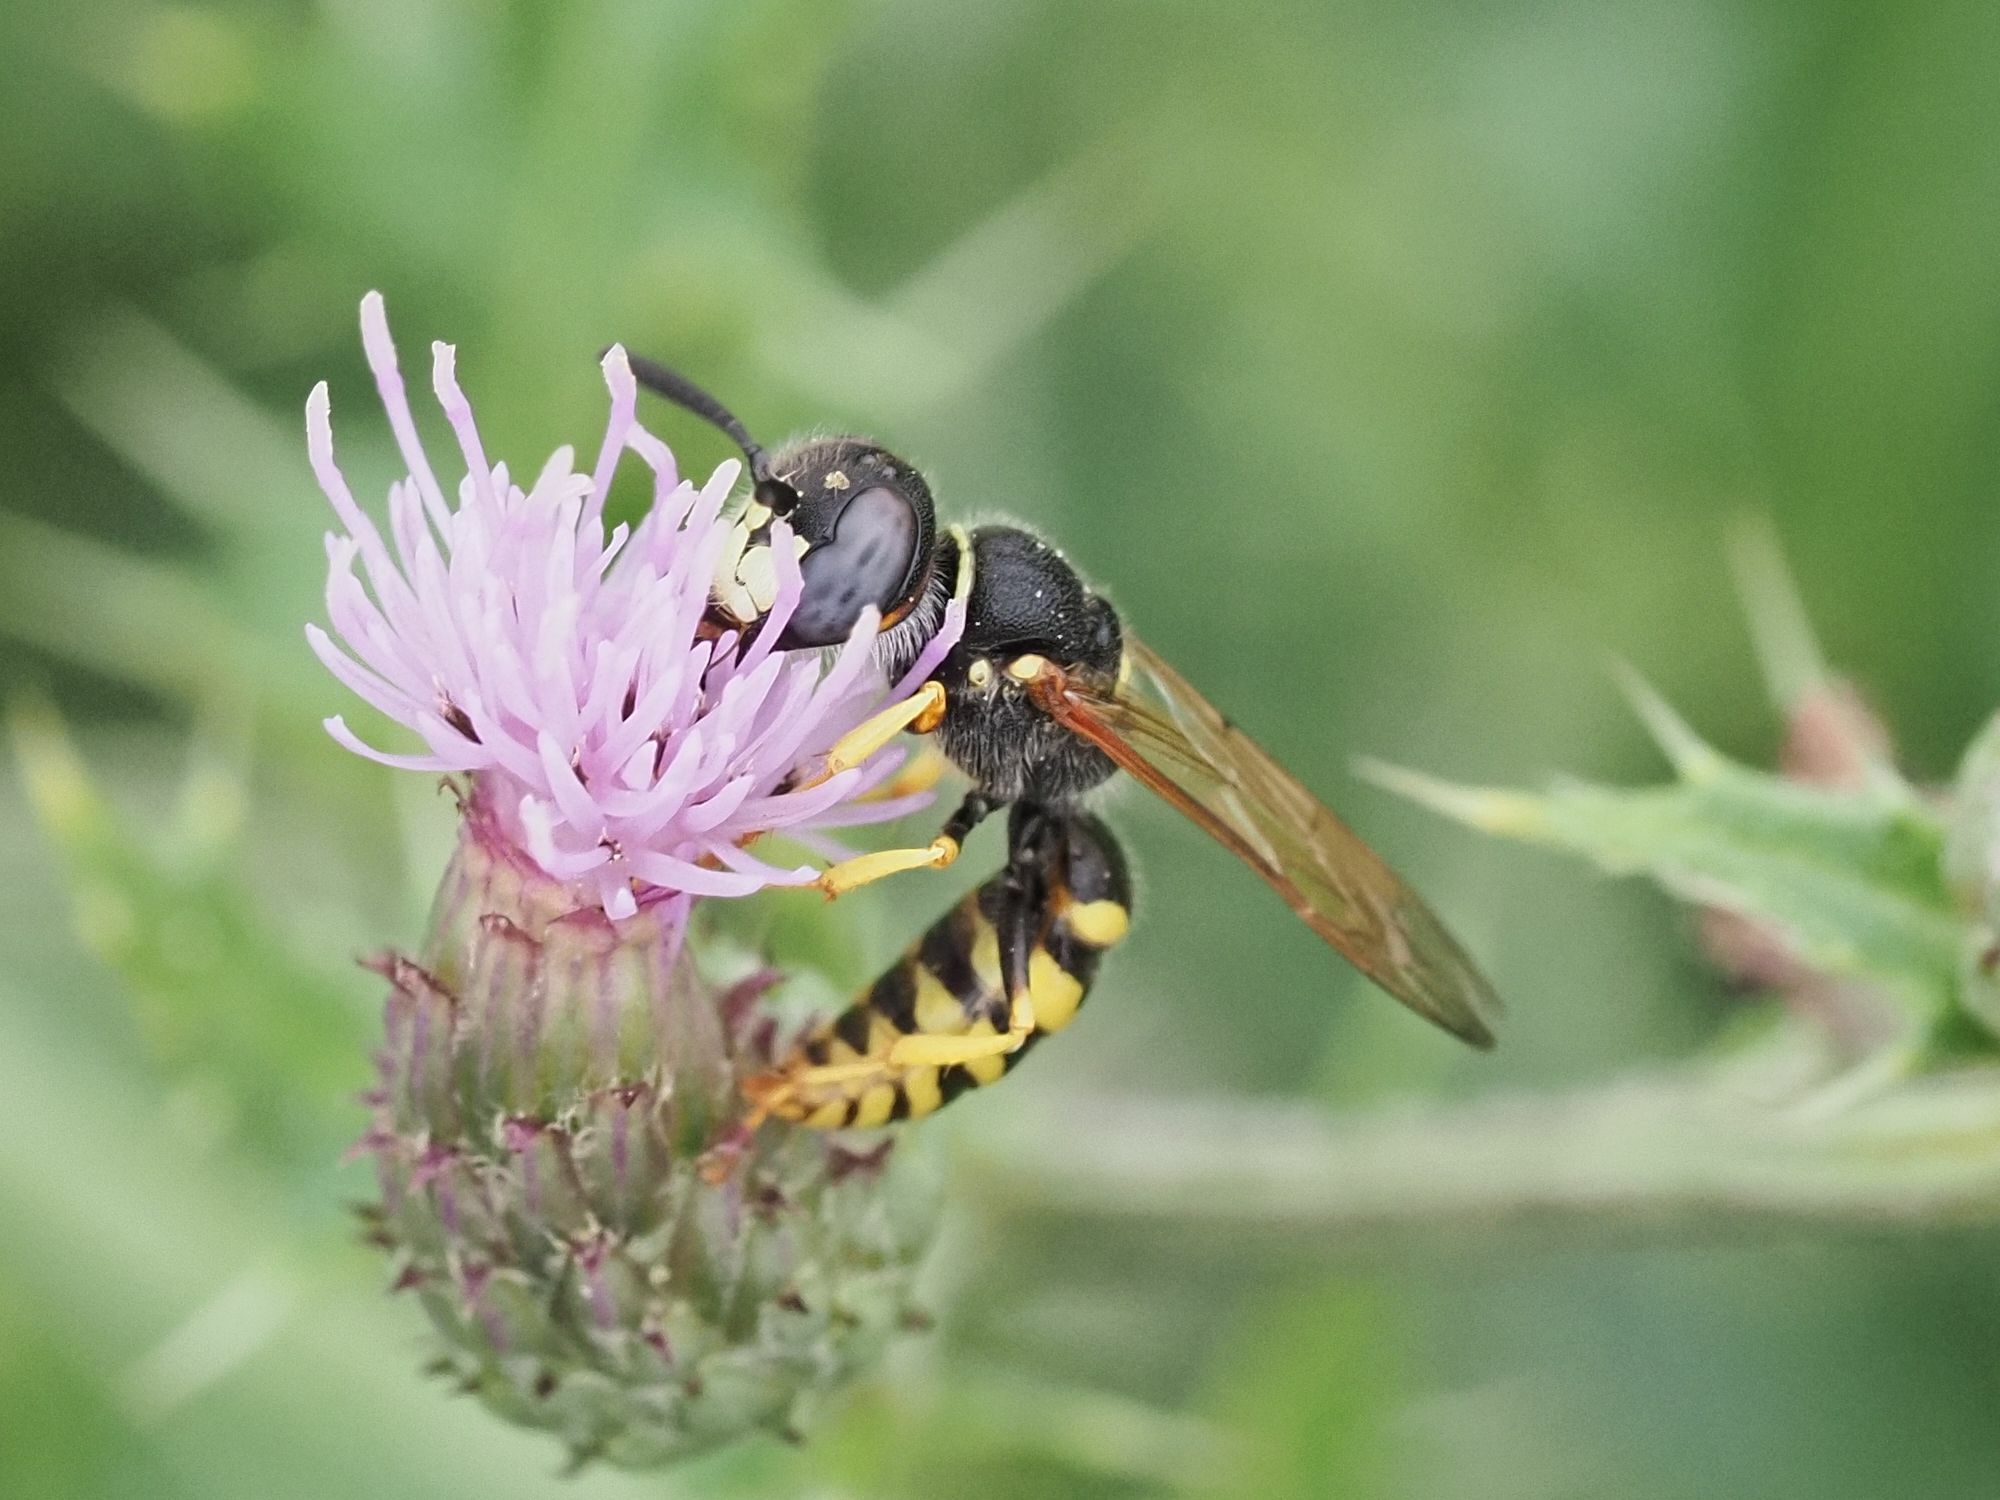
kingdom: Animalia
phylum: Arthropoda
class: Insecta
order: Hymenoptera
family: Crabronidae
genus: Philanthus
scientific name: Philanthus triangulum
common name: Bee wolf
